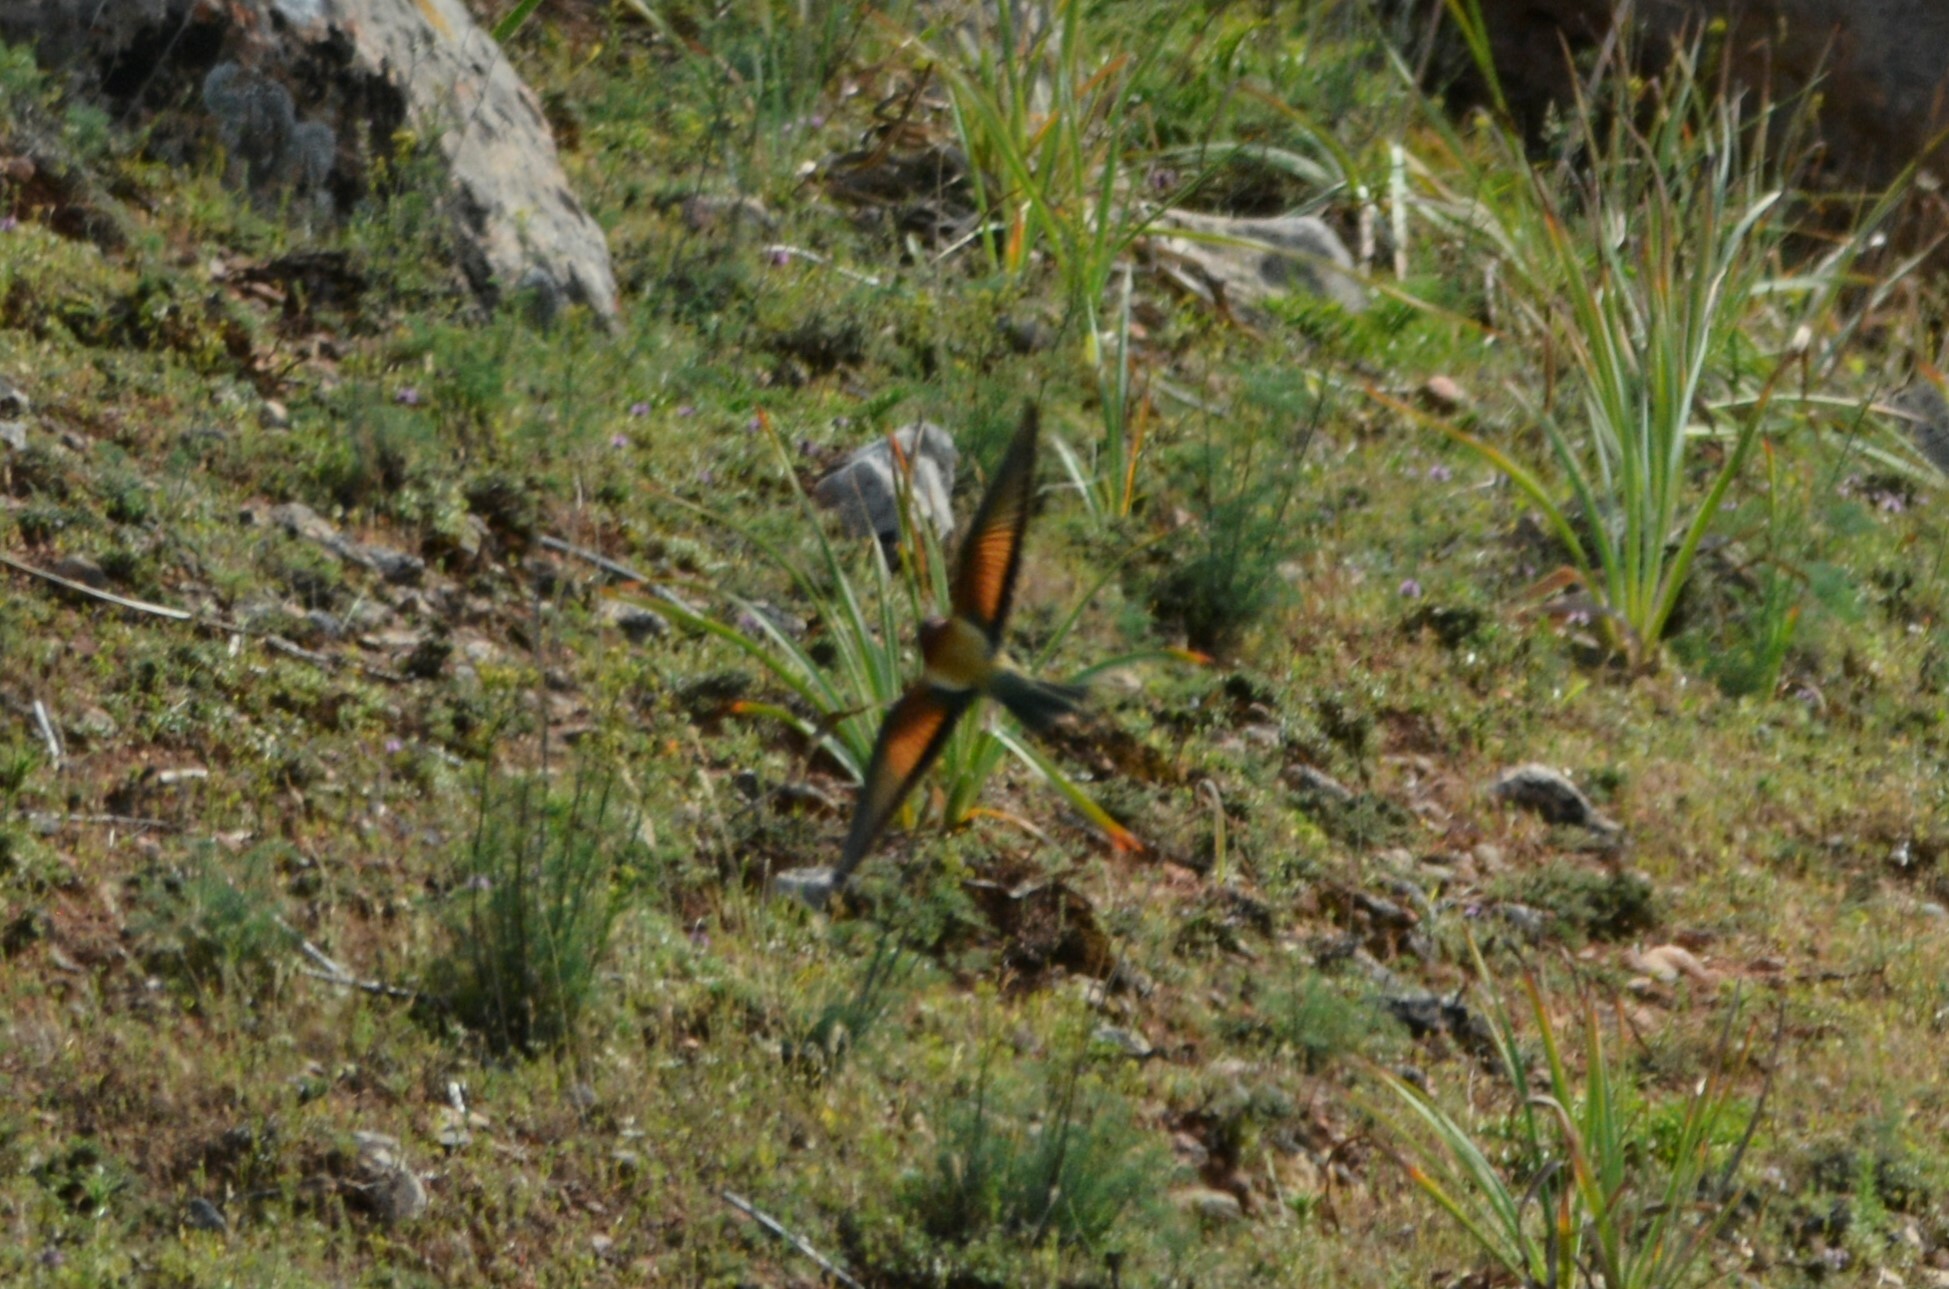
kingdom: Animalia
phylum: Chordata
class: Aves
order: Coraciiformes
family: Meropidae
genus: Merops
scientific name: Merops apiaster
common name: European bee-eater
